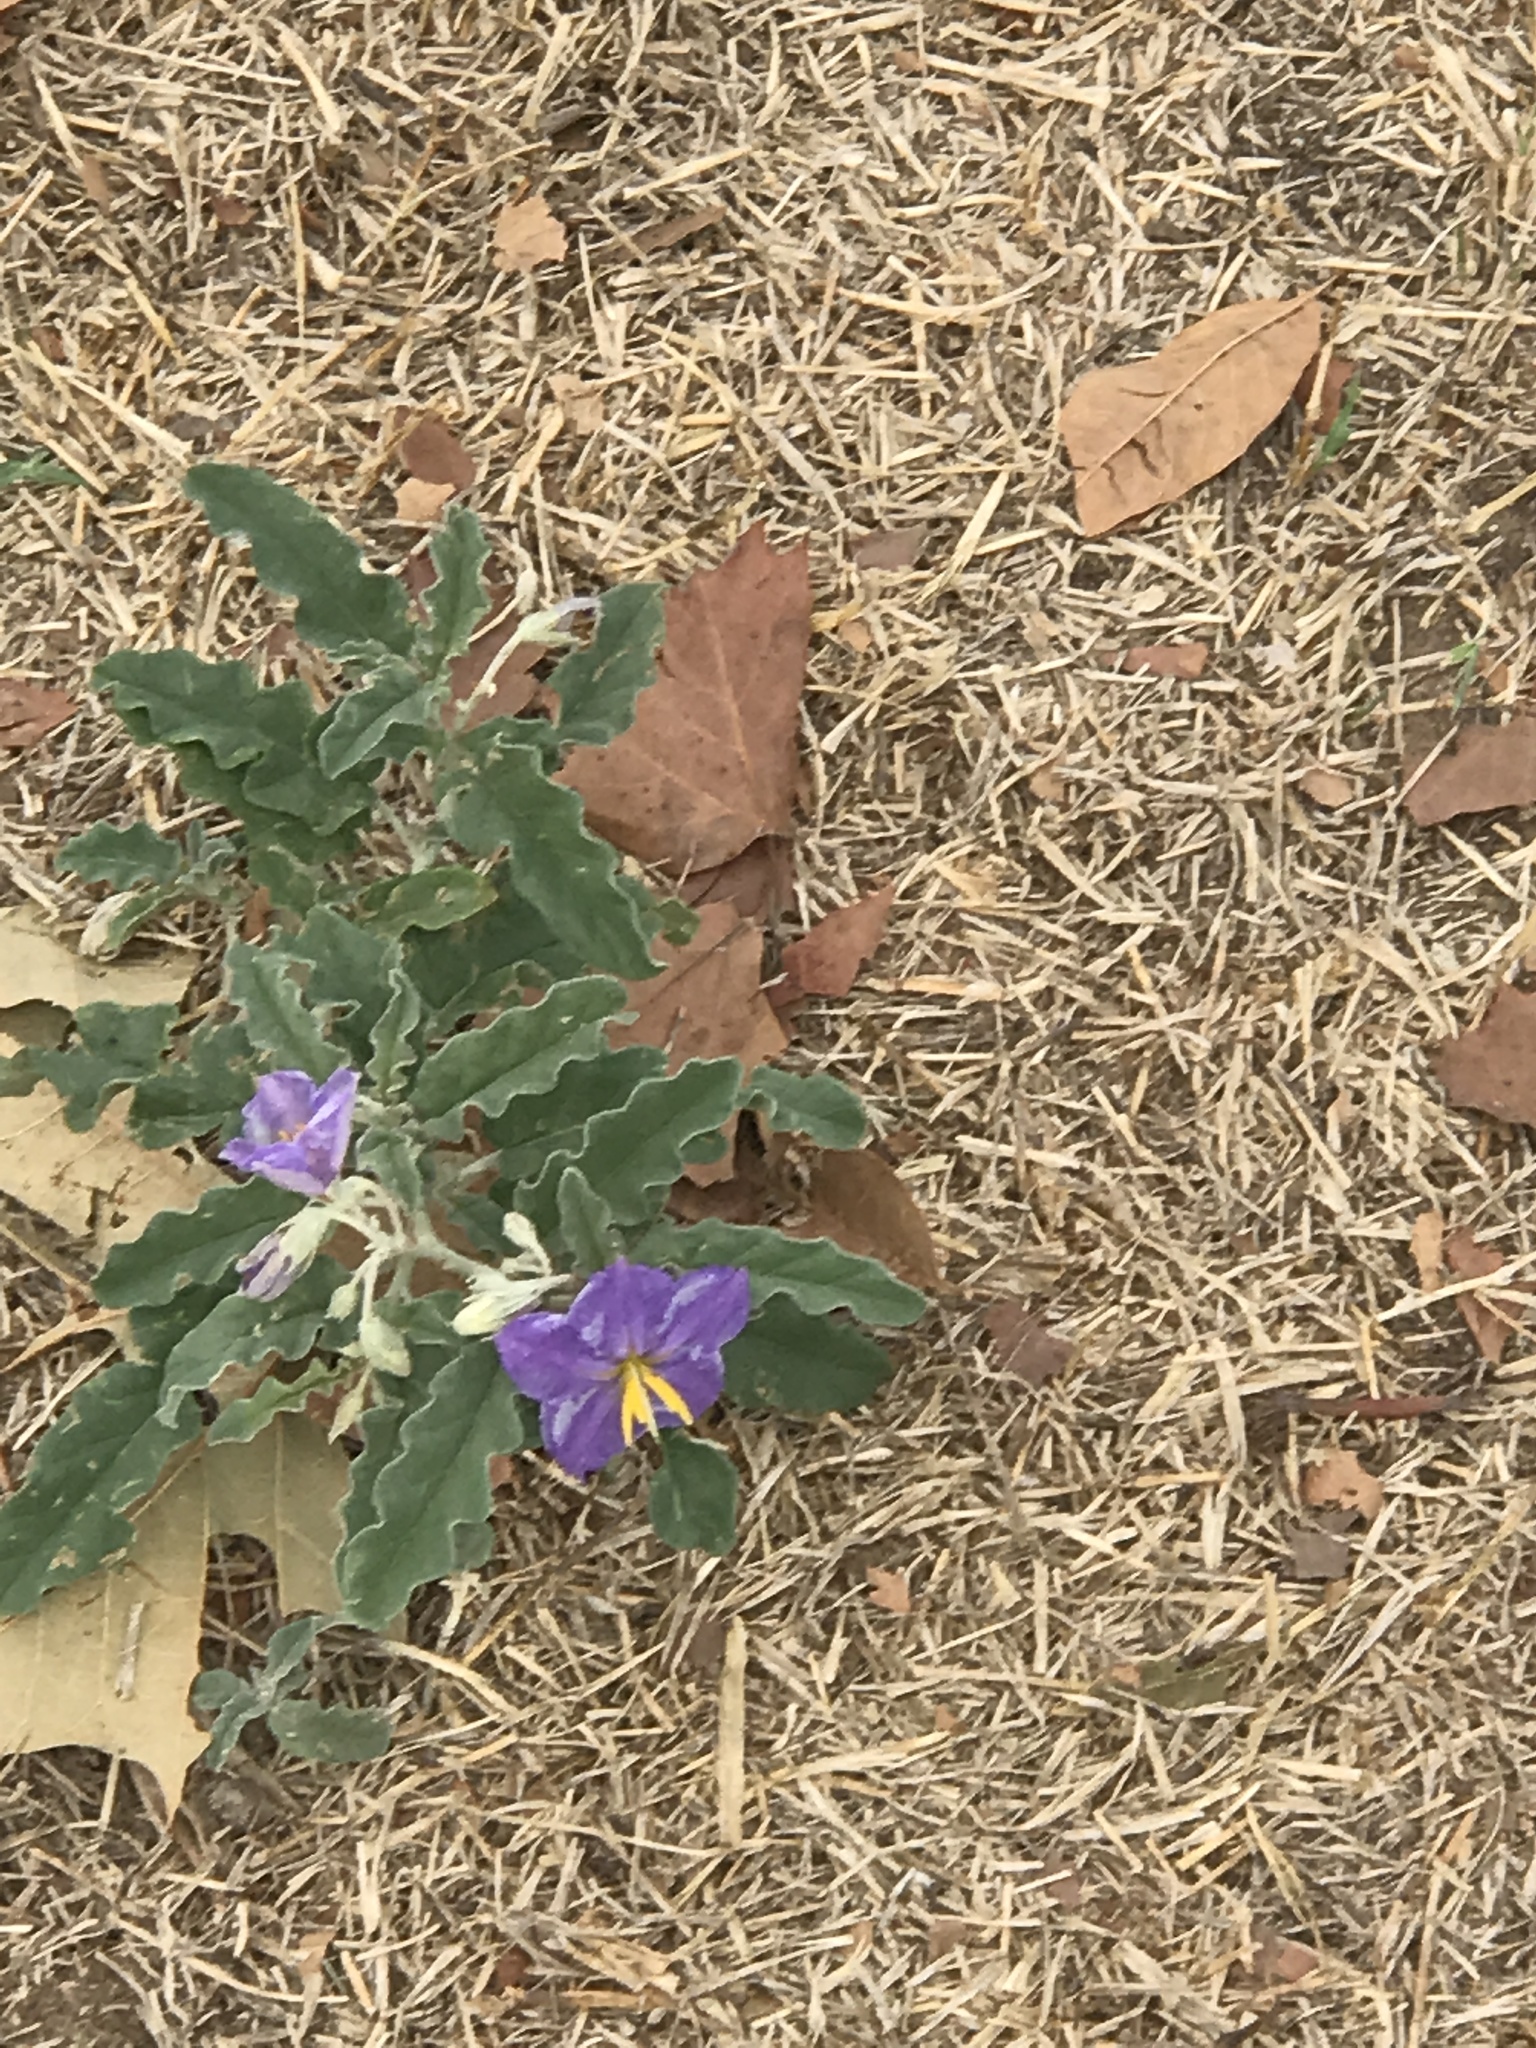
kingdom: Plantae
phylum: Tracheophyta
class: Magnoliopsida
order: Solanales
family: Solanaceae
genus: Solanum
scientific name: Solanum elaeagnifolium
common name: Silverleaf nightshade
